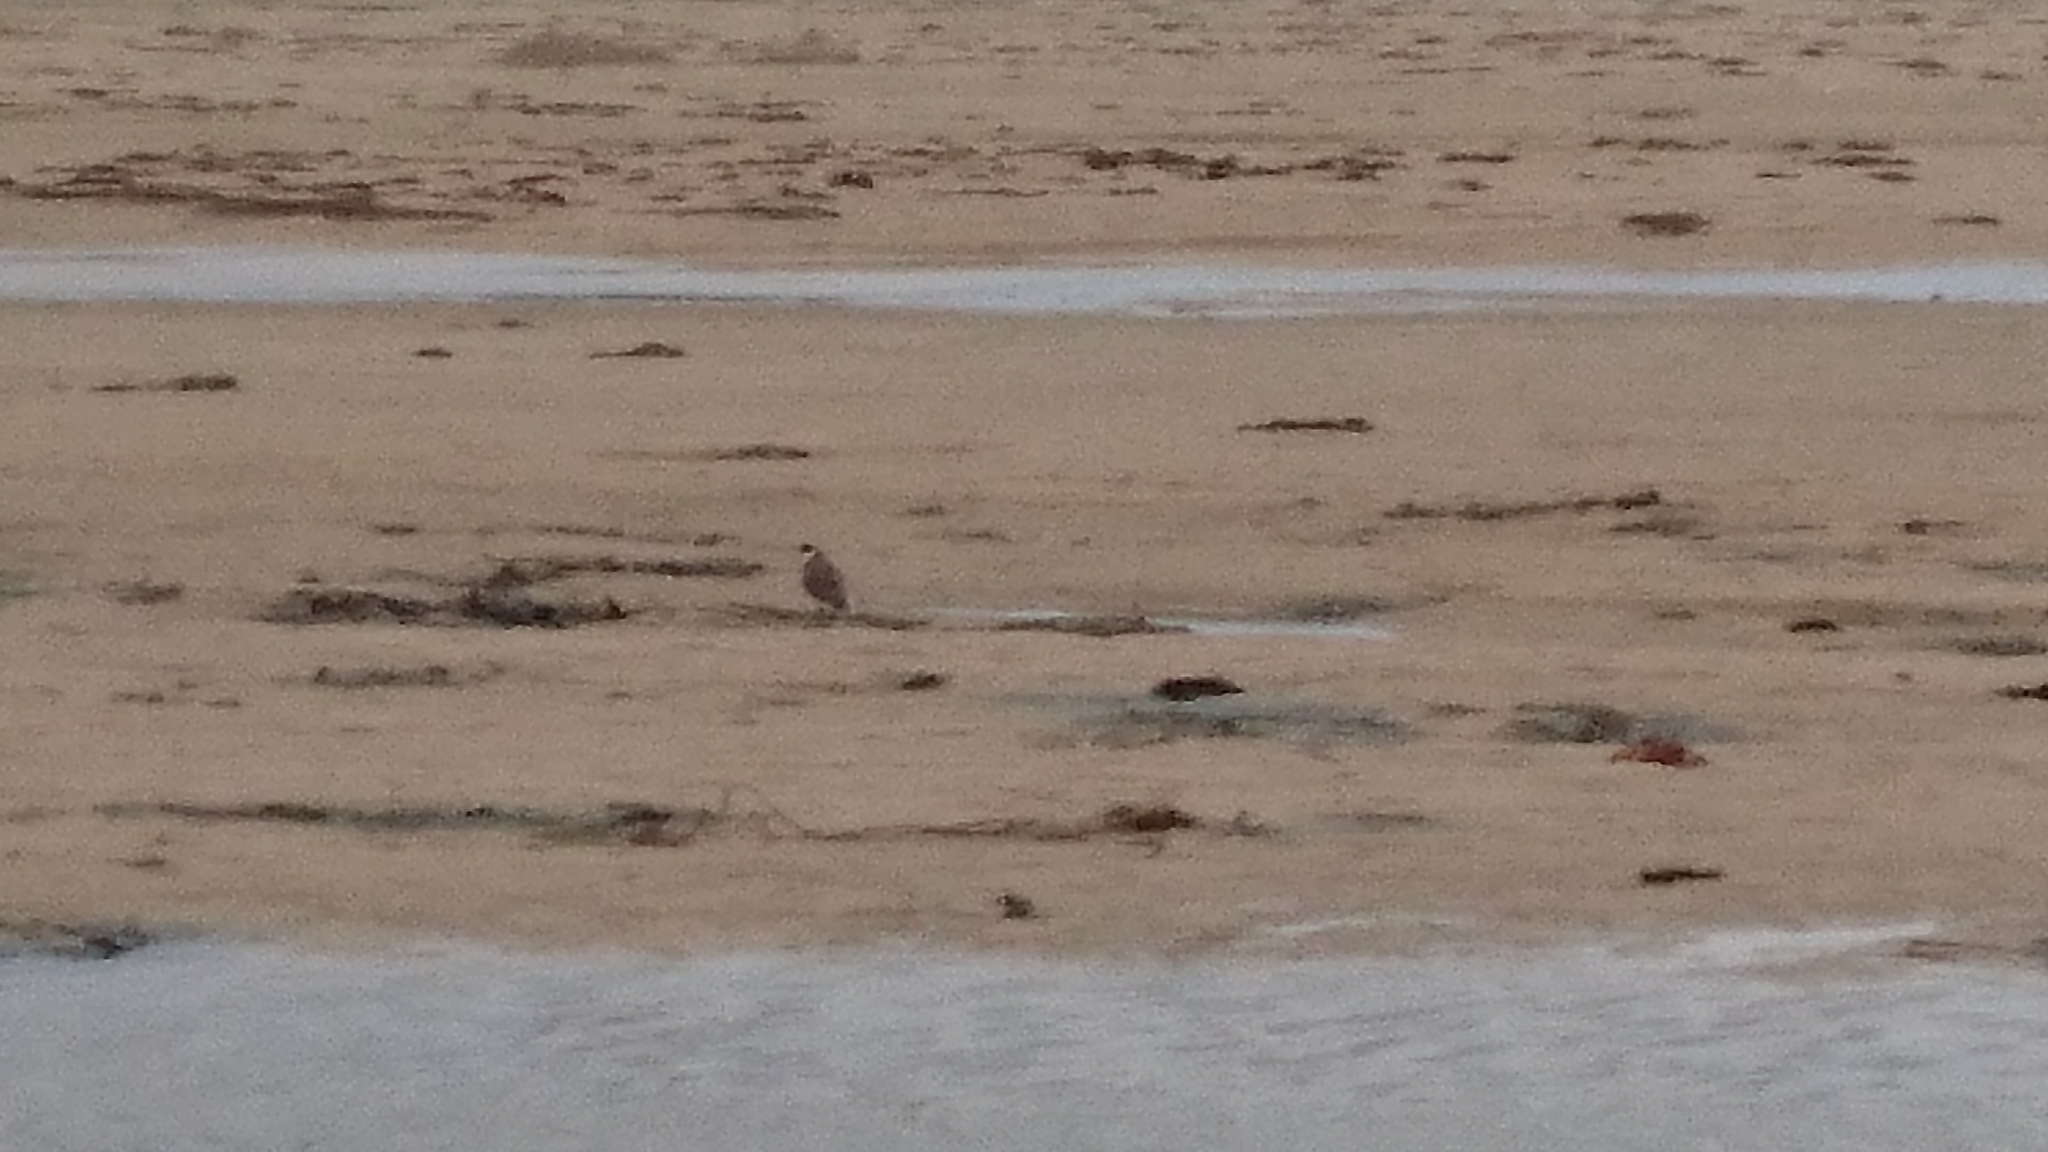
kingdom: Animalia
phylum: Chordata
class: Aves
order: Charadriiformes
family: Charadriidae
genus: Vanellus
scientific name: Vanellus miles
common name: Masked lapwing
